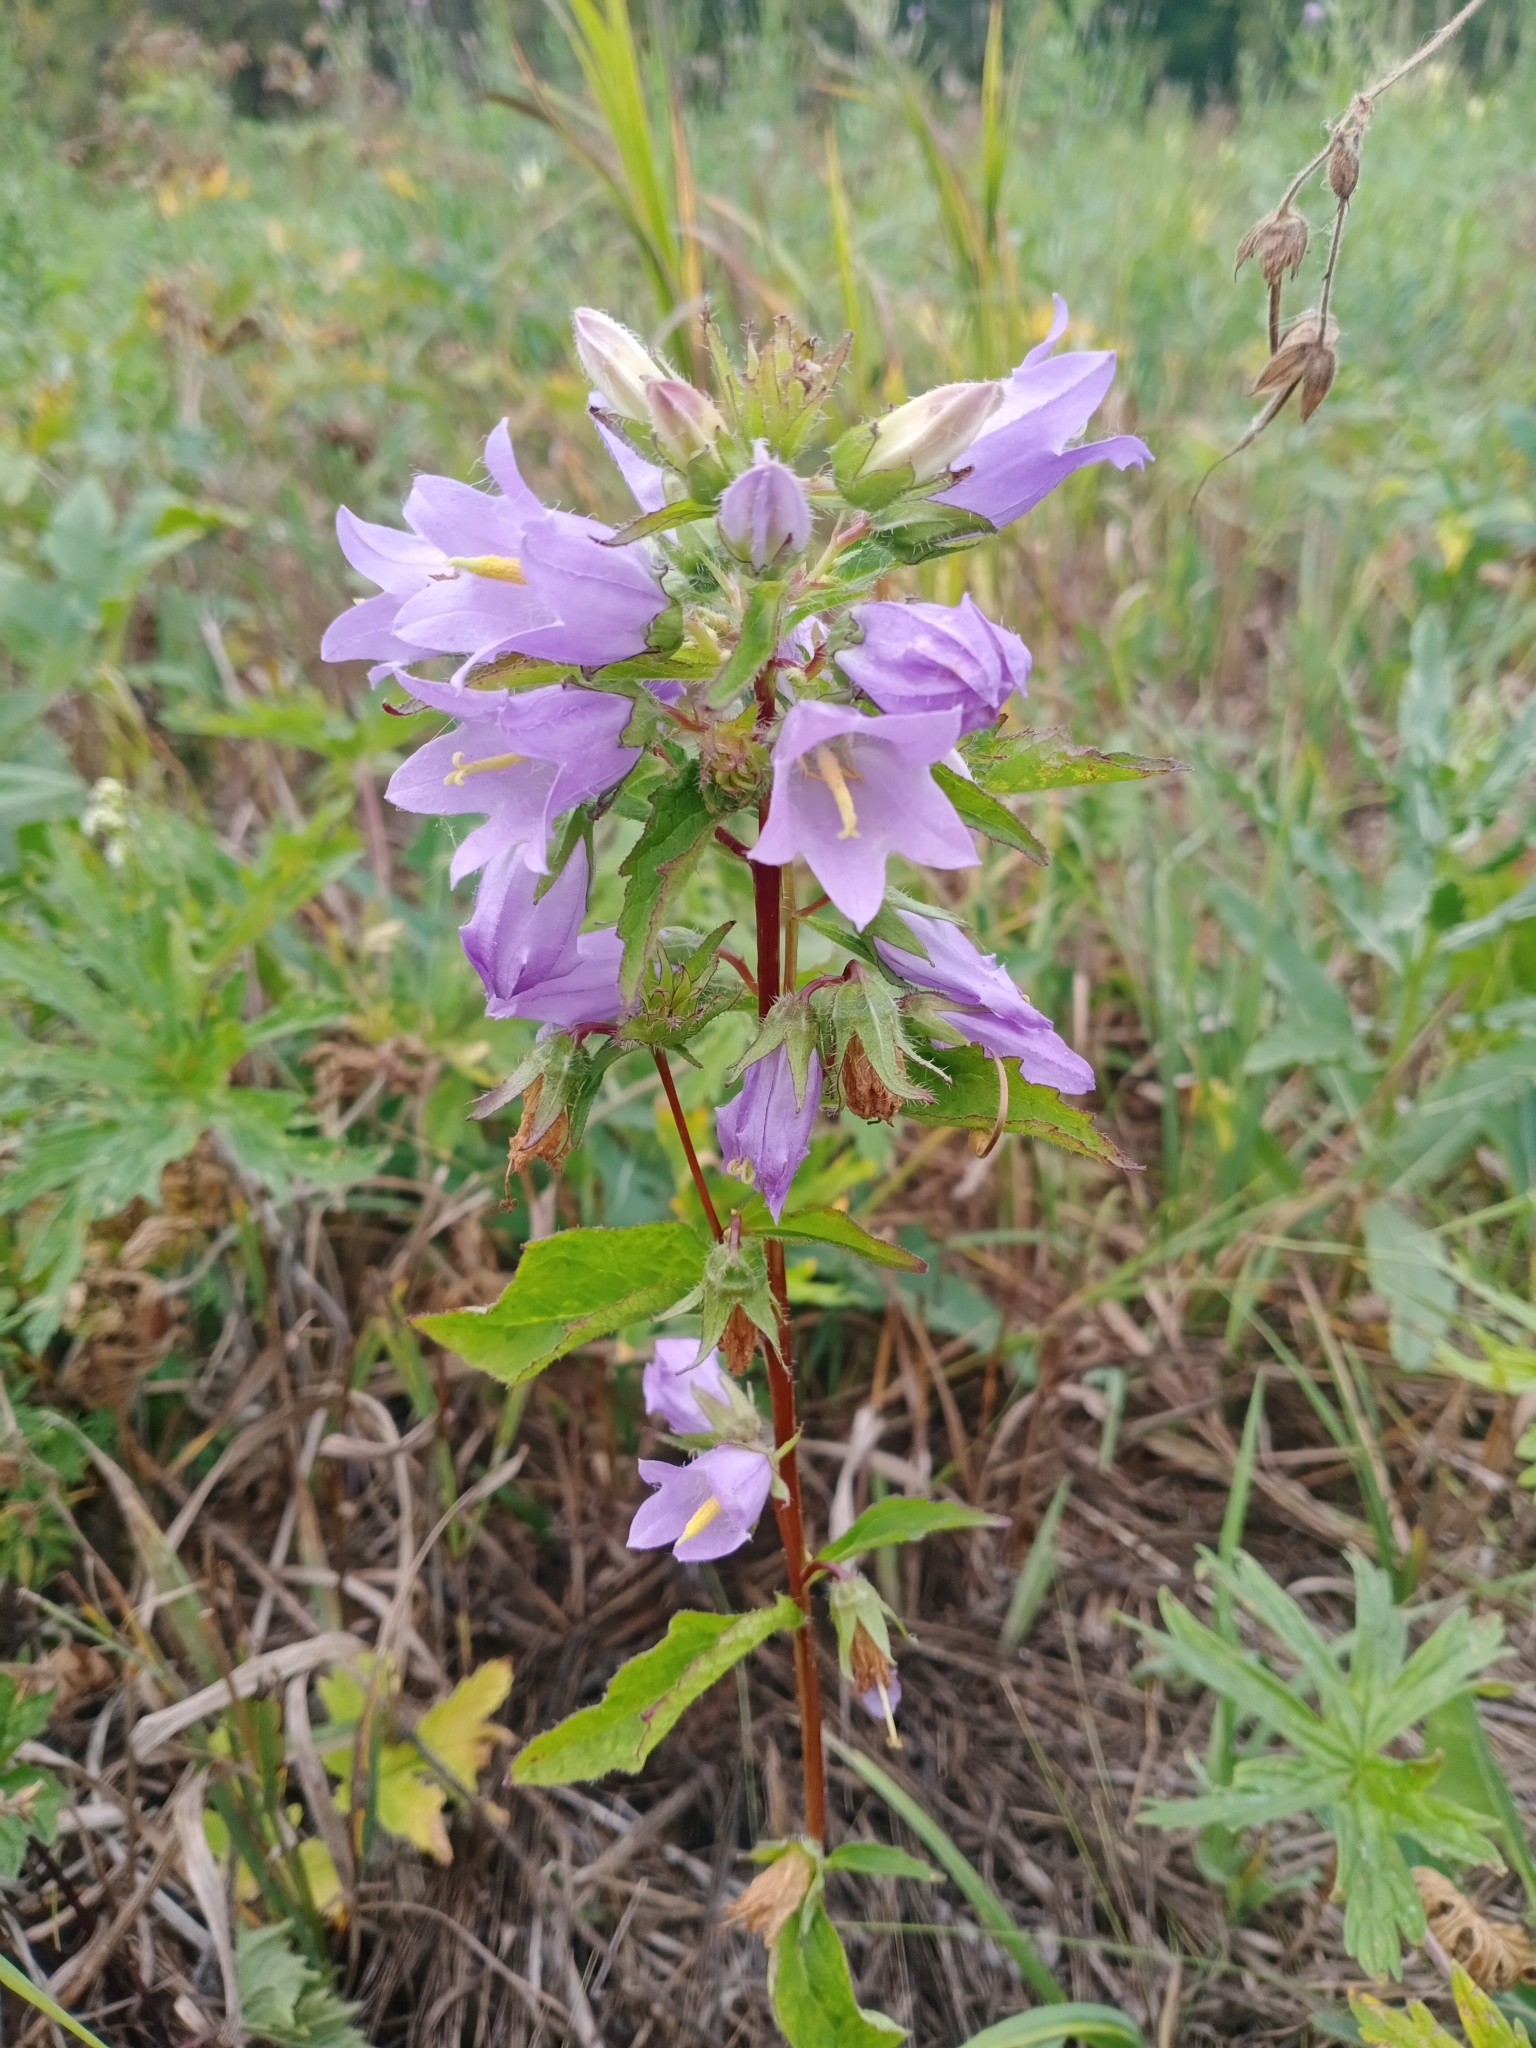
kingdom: Plantae
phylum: Tracheophyta
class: Magnoliopsida
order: Asterales
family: Campanulaceae
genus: Campanula
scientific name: Campanula trachelium
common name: Nettle-leaved bellflower
